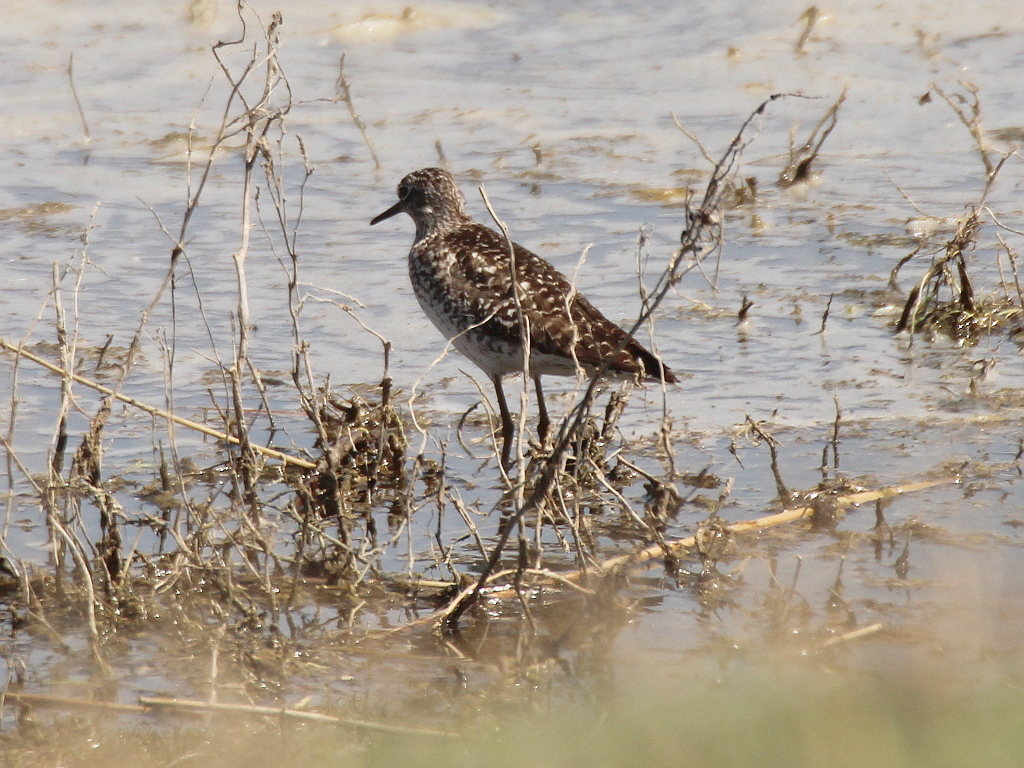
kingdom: Animalia
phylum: Chordata
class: Aves
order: Charadriiformes
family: Scolopacidae
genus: Tringa
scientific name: Tringa glareola
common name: Wood sandpiper
